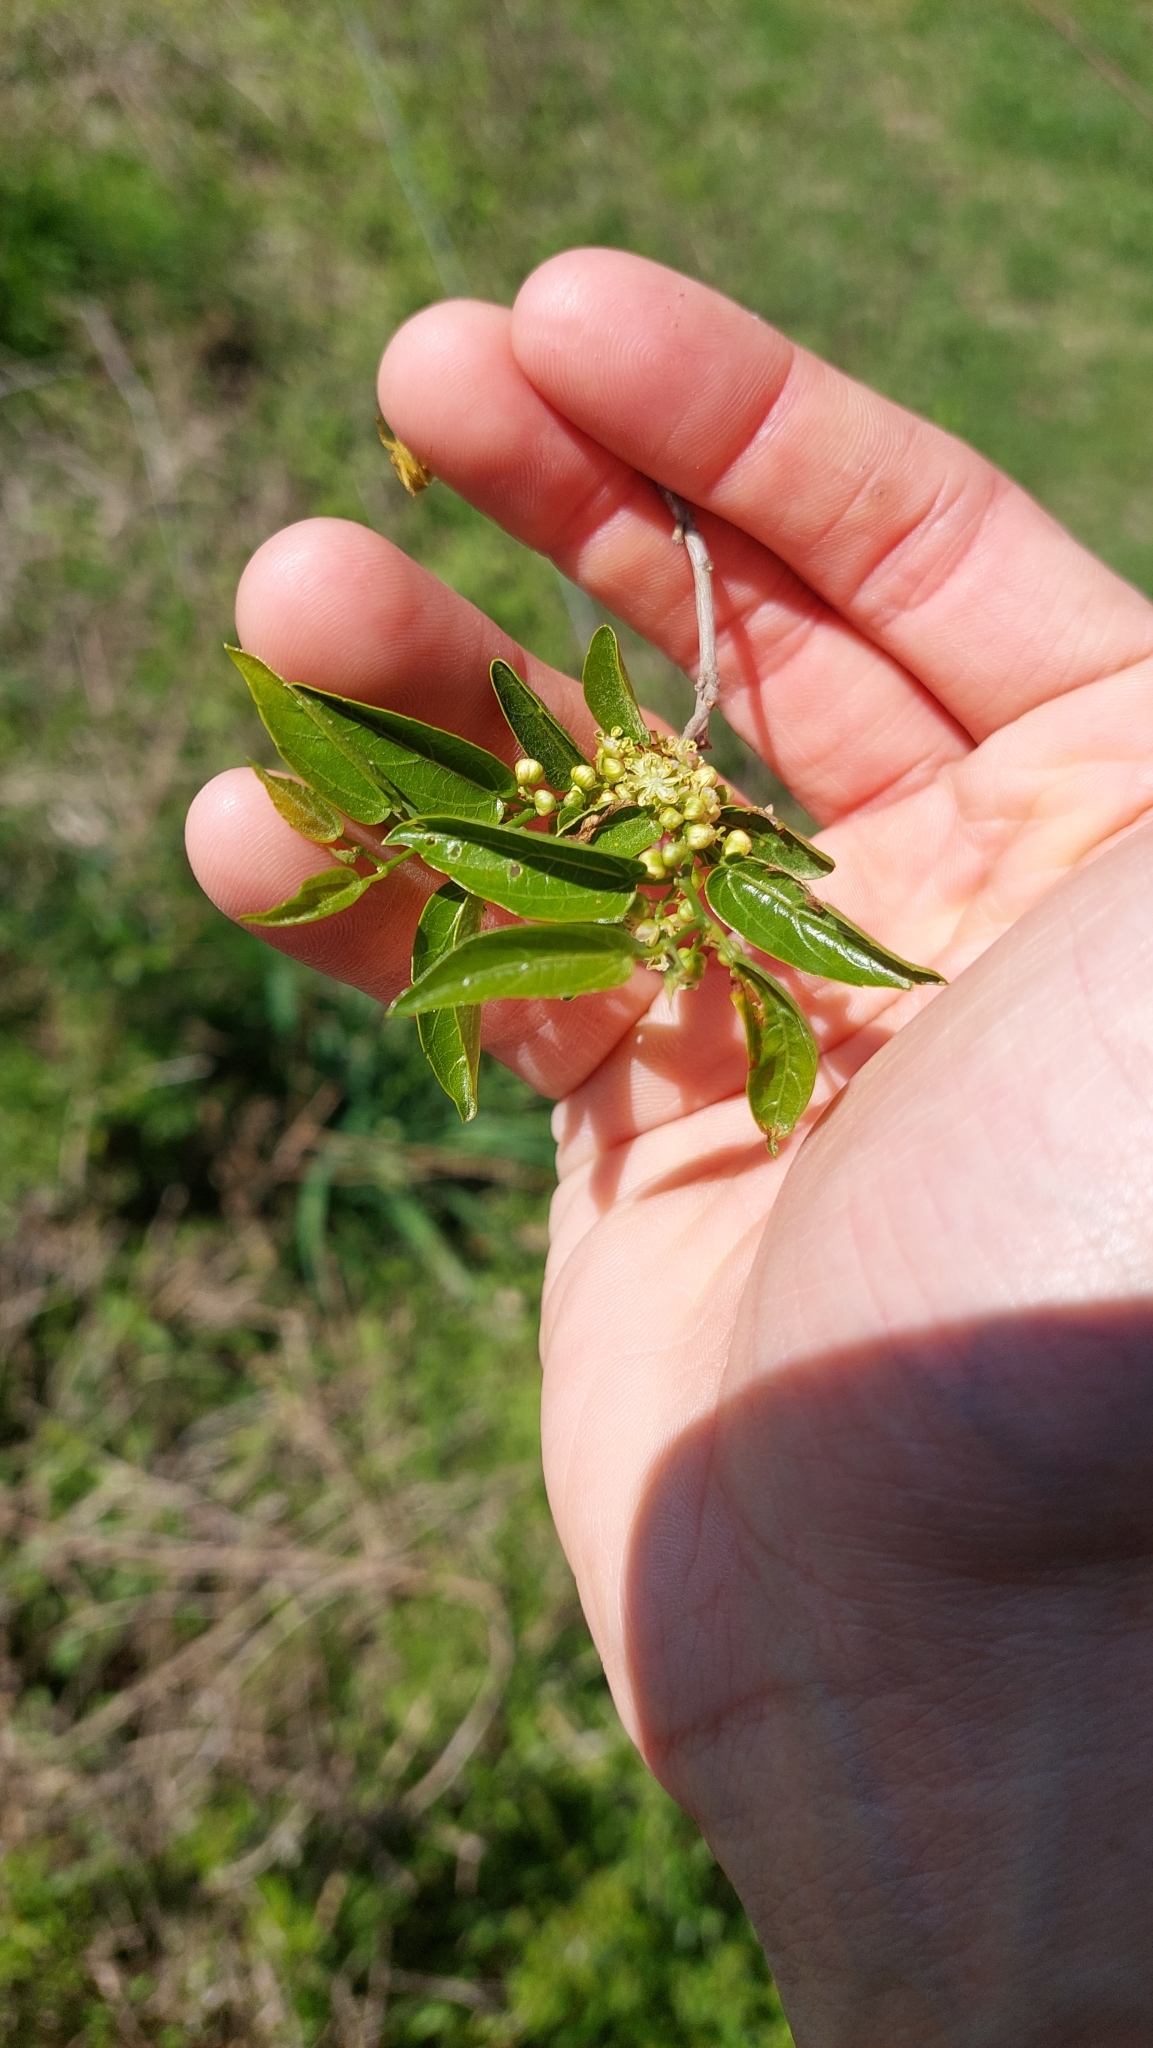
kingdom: Plantae
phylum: Tracheophyta
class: Magnoliopsida
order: Rosales
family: Cannabaceae
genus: Celtis
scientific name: Celtis tala
